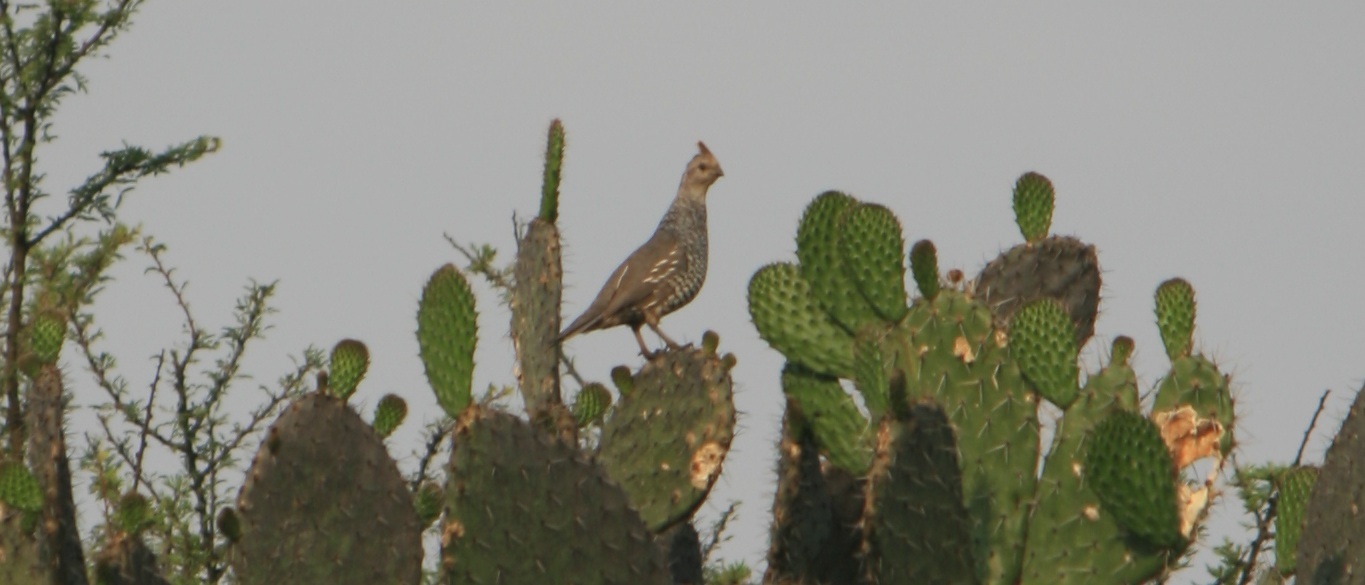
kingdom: Animalia
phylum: Chordata
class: Aves
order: Galliformes
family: Odontophoridae
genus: Callipepla
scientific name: Callipepla squamata
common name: Scaled quail
